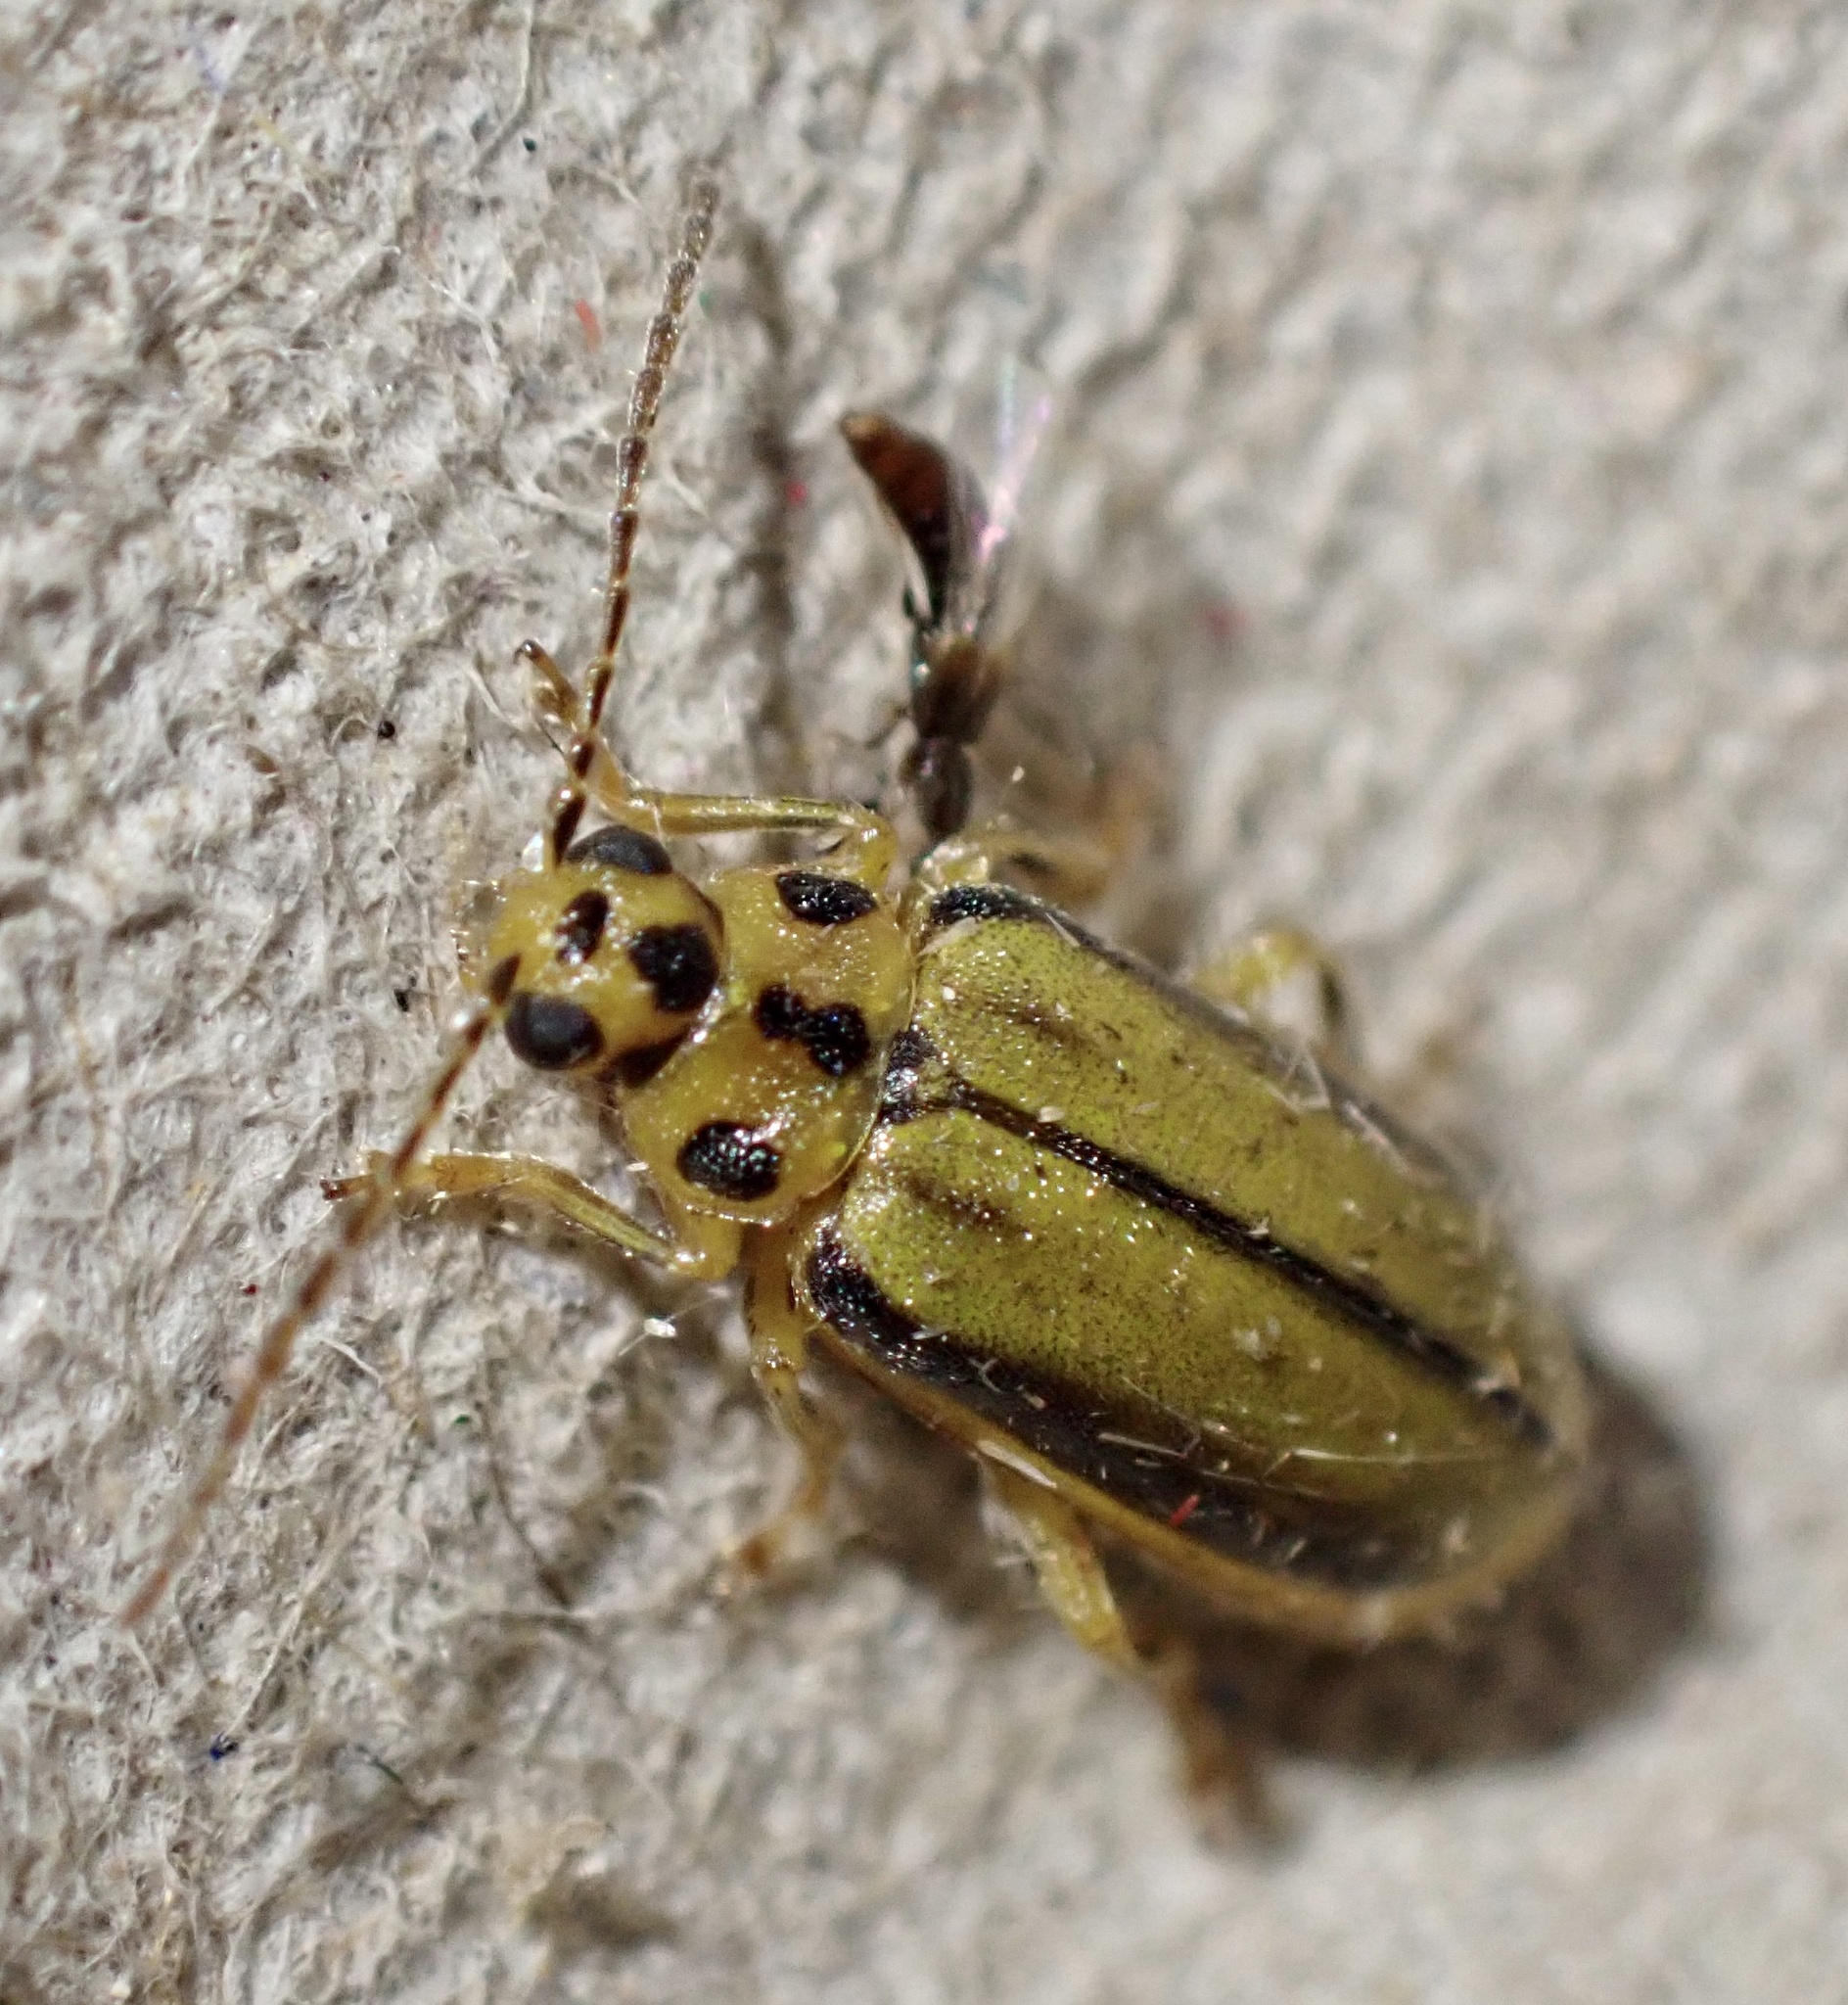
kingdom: Animalia
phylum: Arthropoda
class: Insecta
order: Coleoptera
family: Chrysomelidae
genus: Xanthogaleruca
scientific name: Xanthogaleruca luteola
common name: Elm leaf beetle
